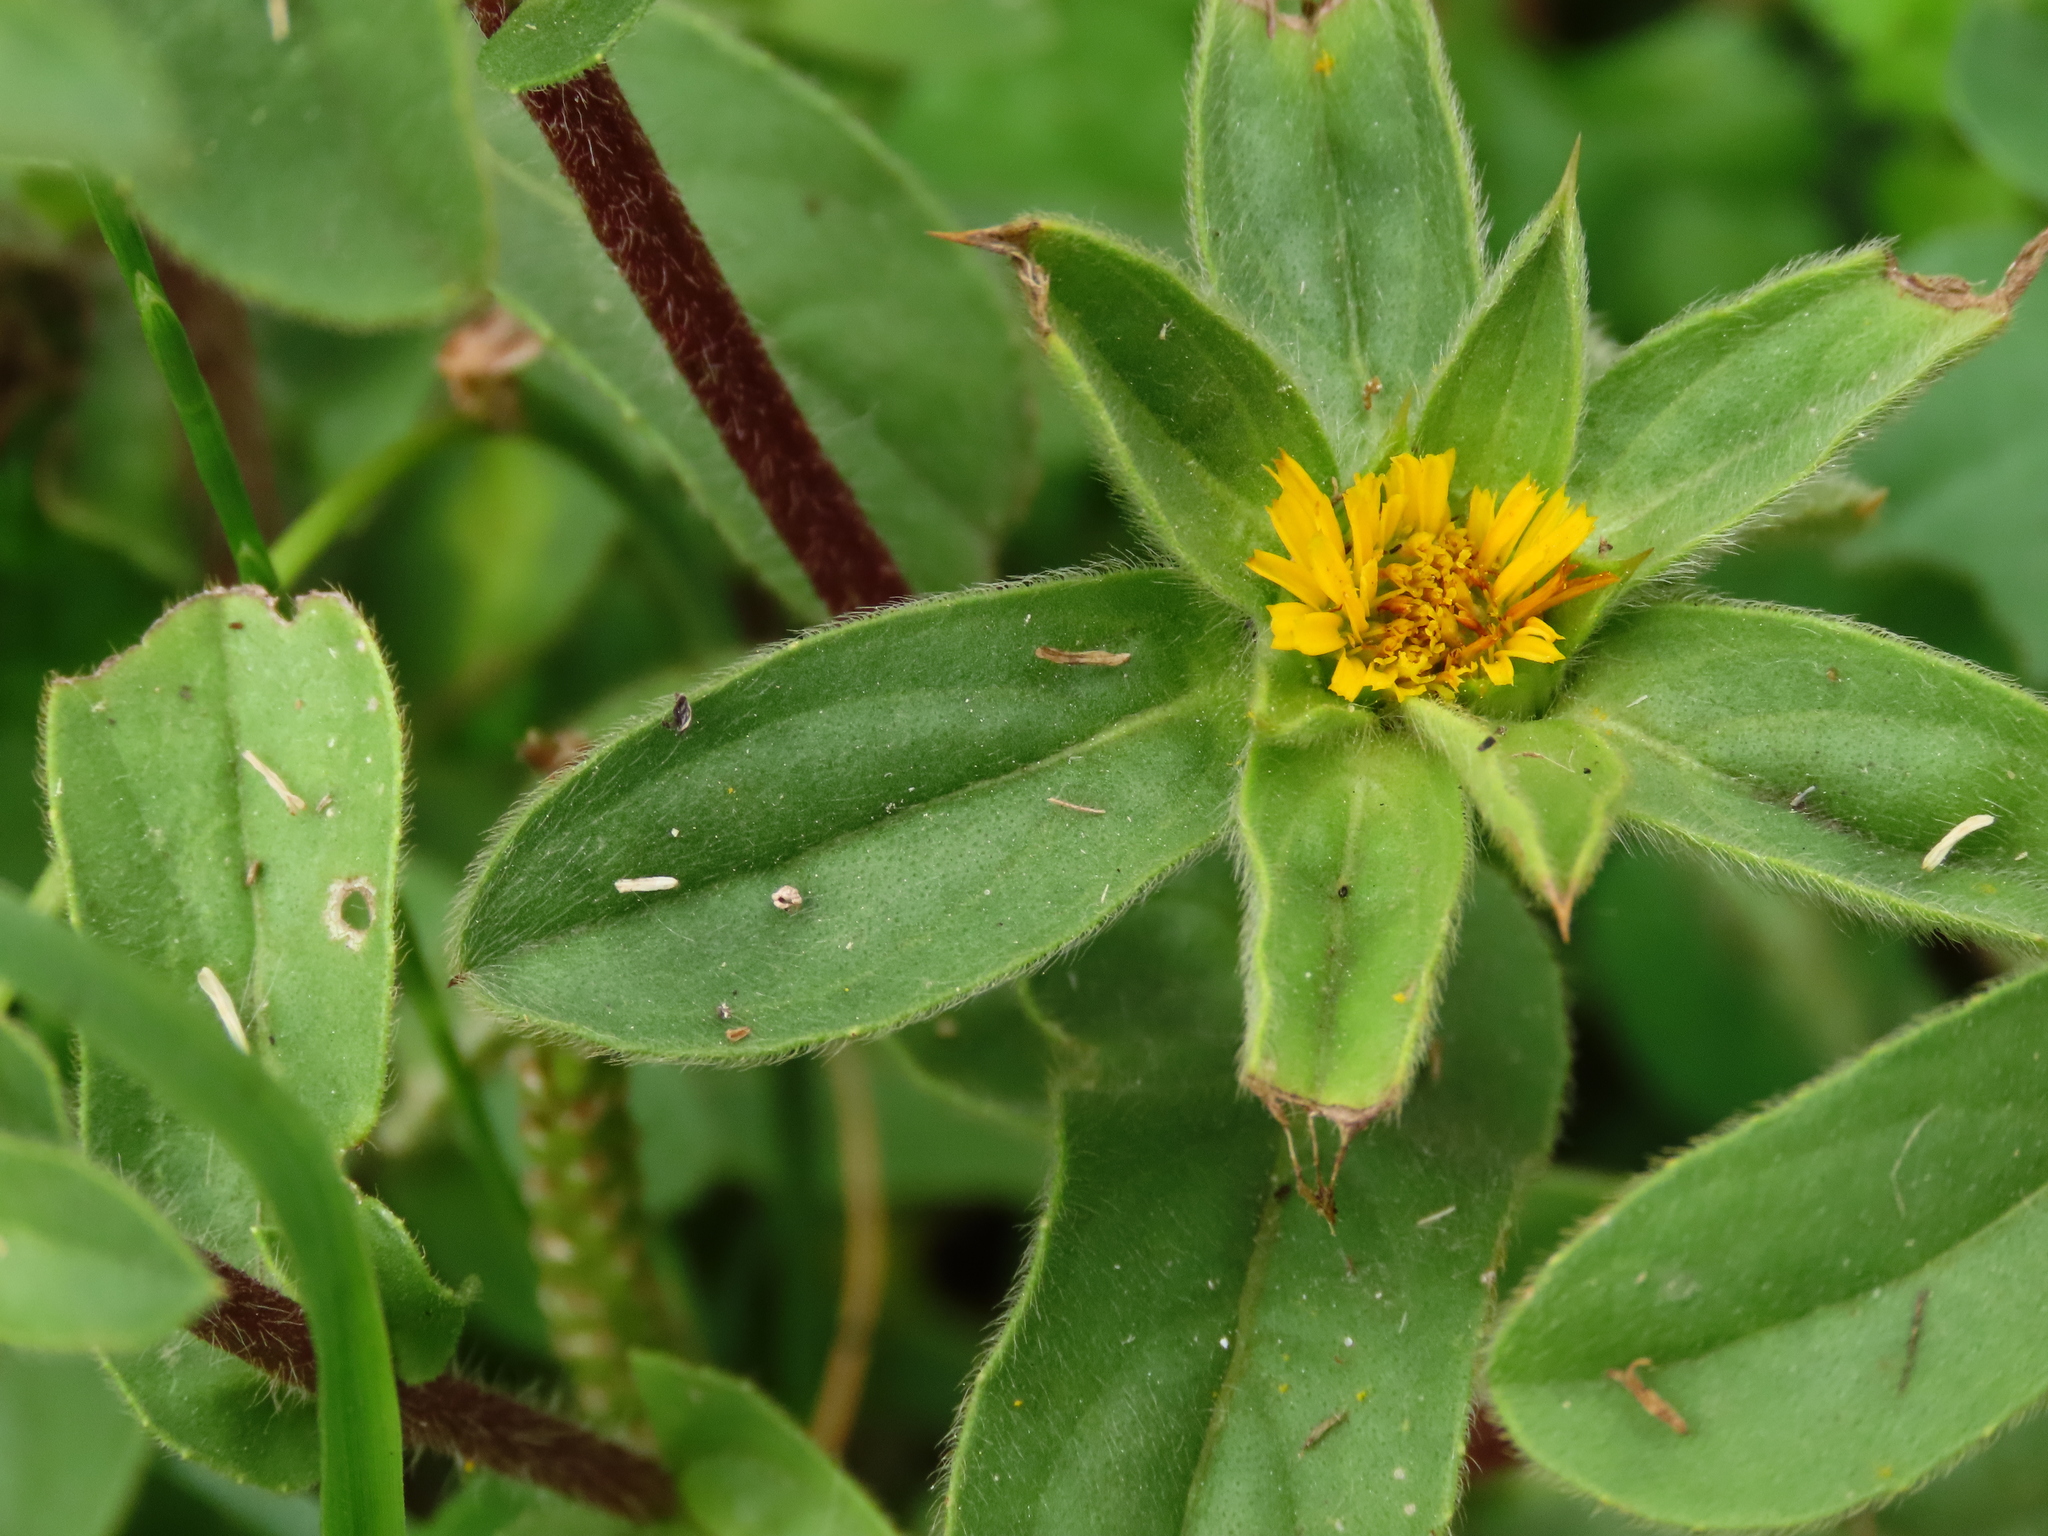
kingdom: Plantae
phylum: Tracheophyta
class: Magnoliopsida
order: Asterales
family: Asteraceae
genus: Pallenis
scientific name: Pallenis spinosa
